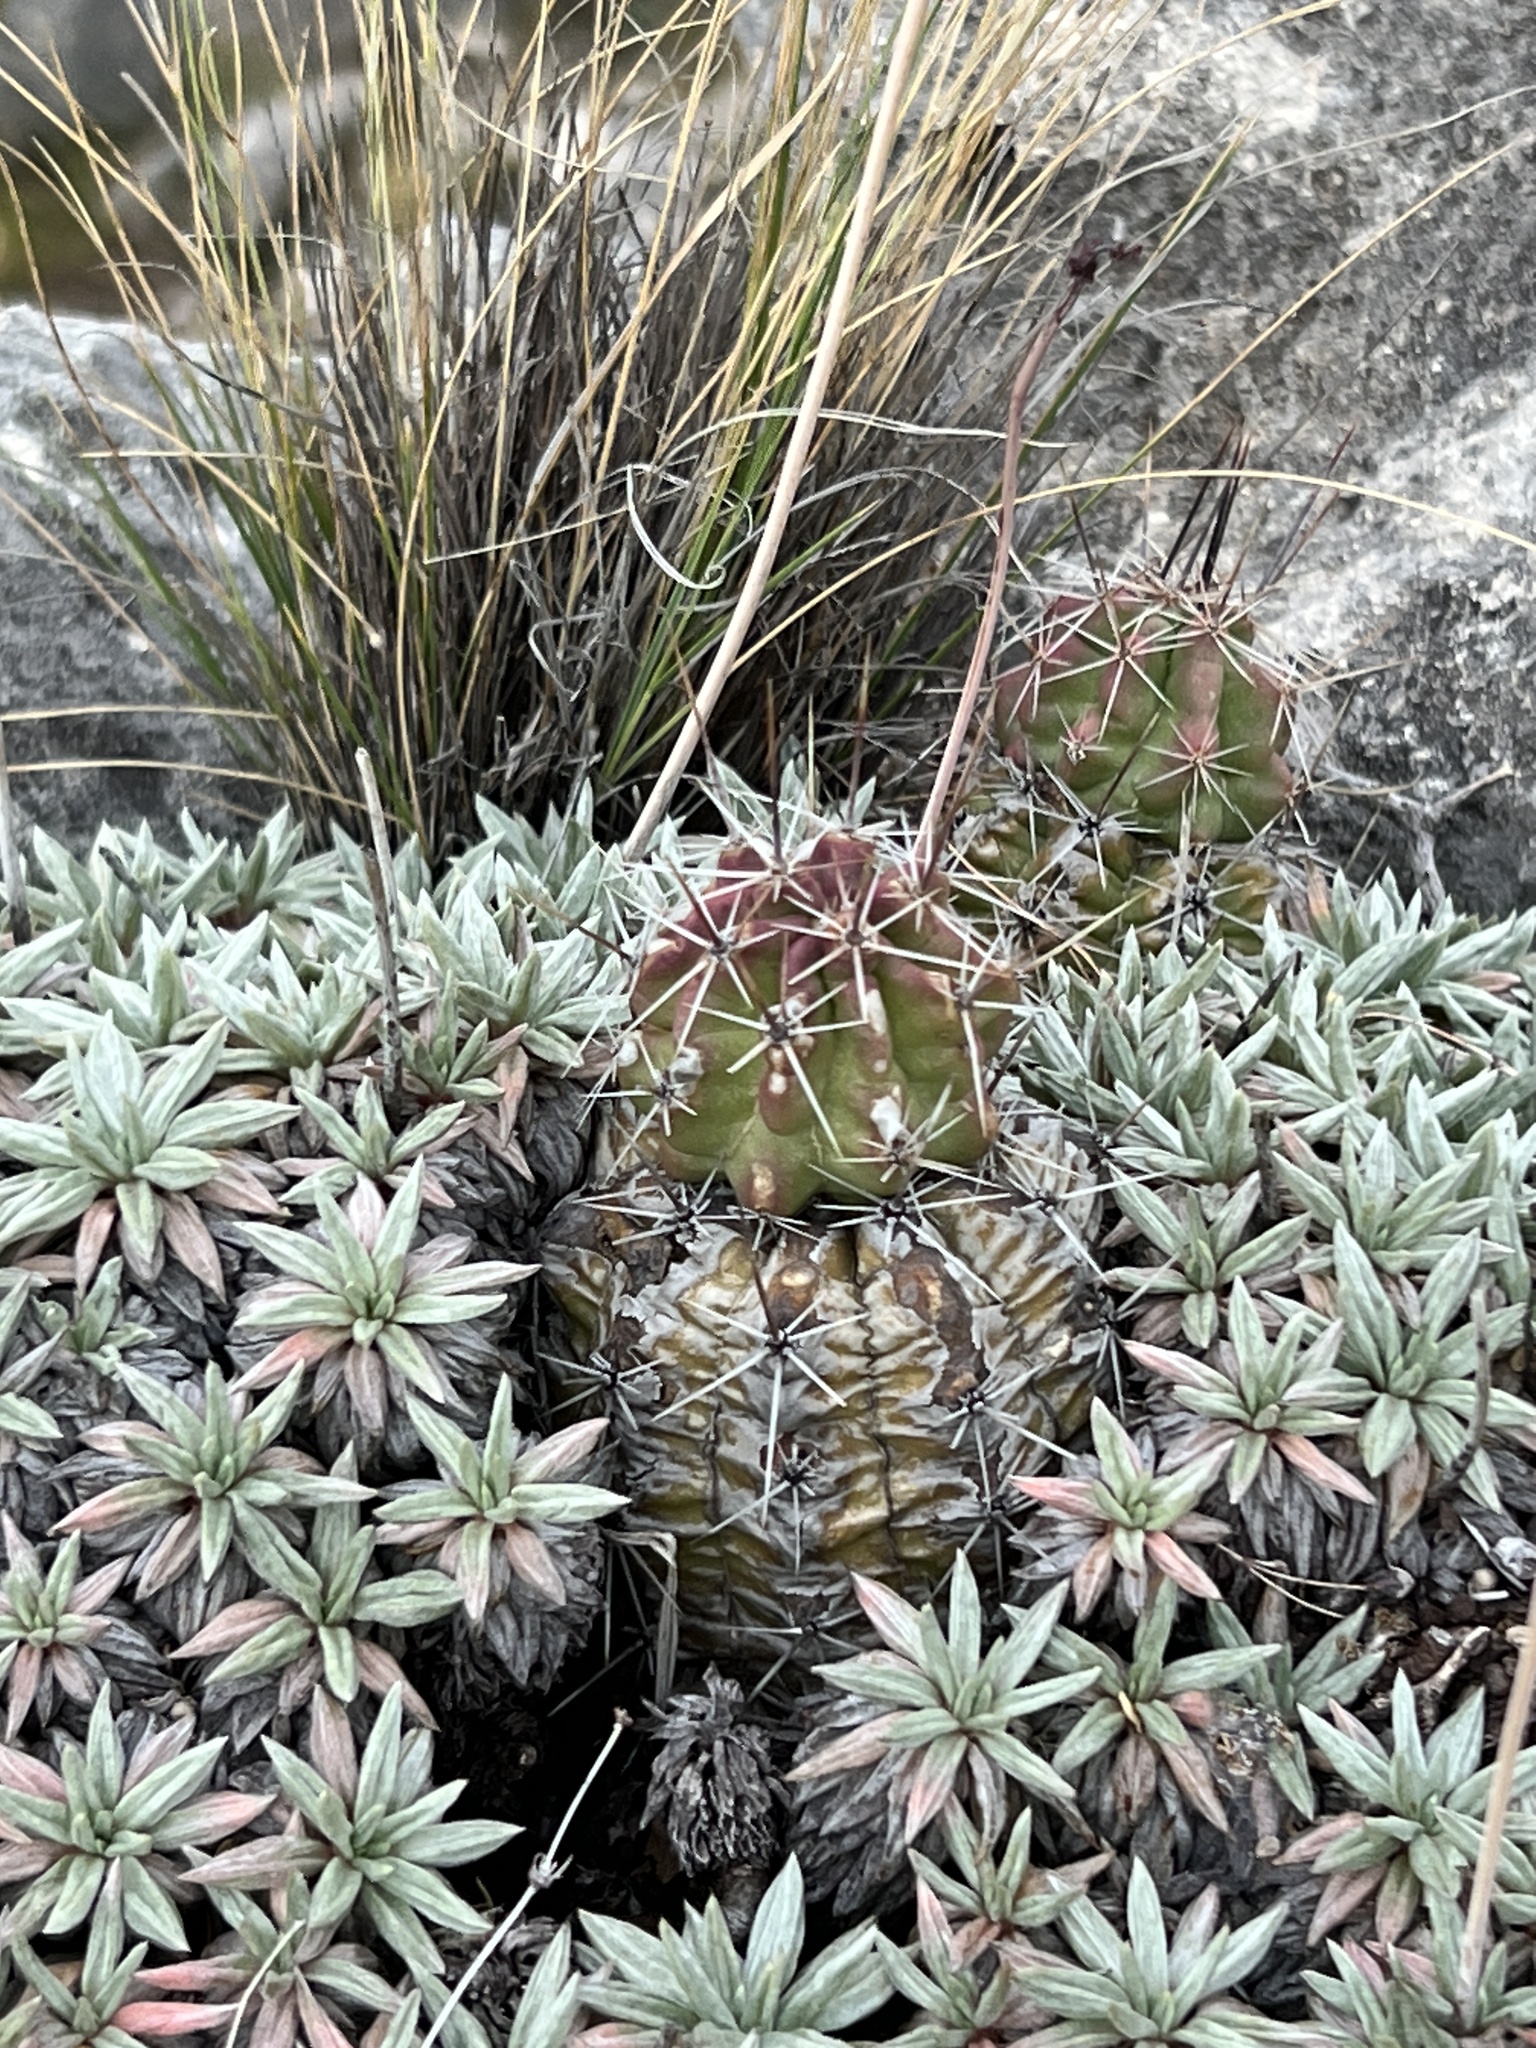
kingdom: Plantae
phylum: Tracheophyta
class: Magnoliopsida
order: Caryophyllales
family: Cactaceae
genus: Echinocereus
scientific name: Echinocereus enneacanthus
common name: Pitaya
